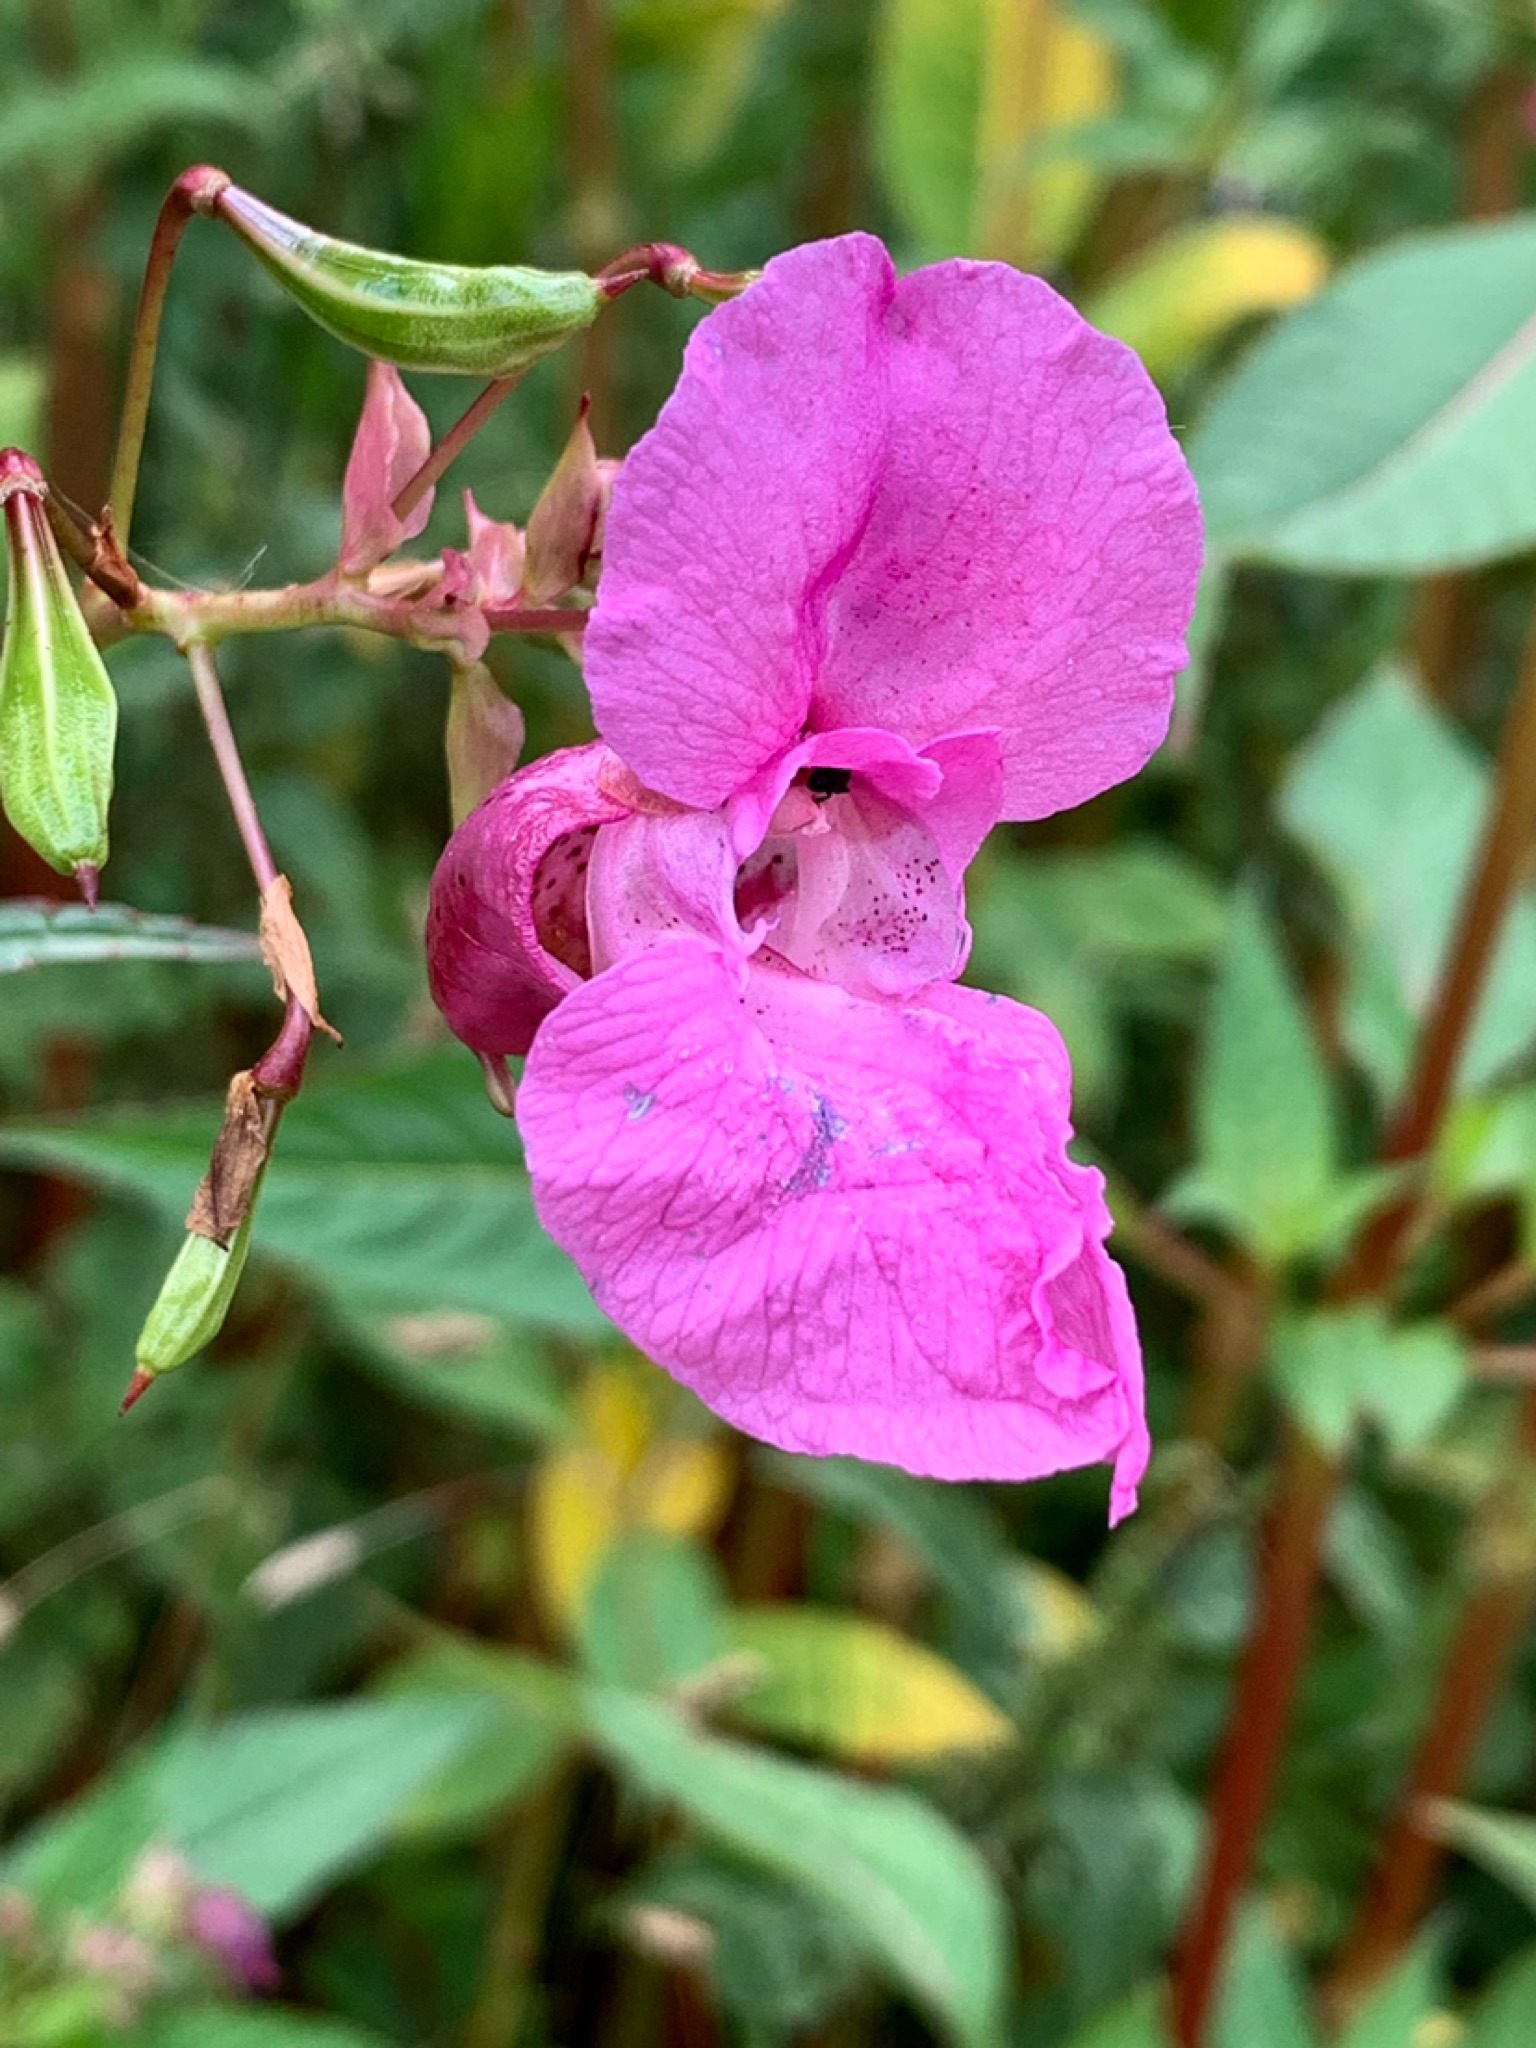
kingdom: Plantae
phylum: Tracheophyta
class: Magnoliopsida
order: Ericales
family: Balsaminaceae
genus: Impatiens
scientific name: Impatiens glandulifera
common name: Himalayan balsam
